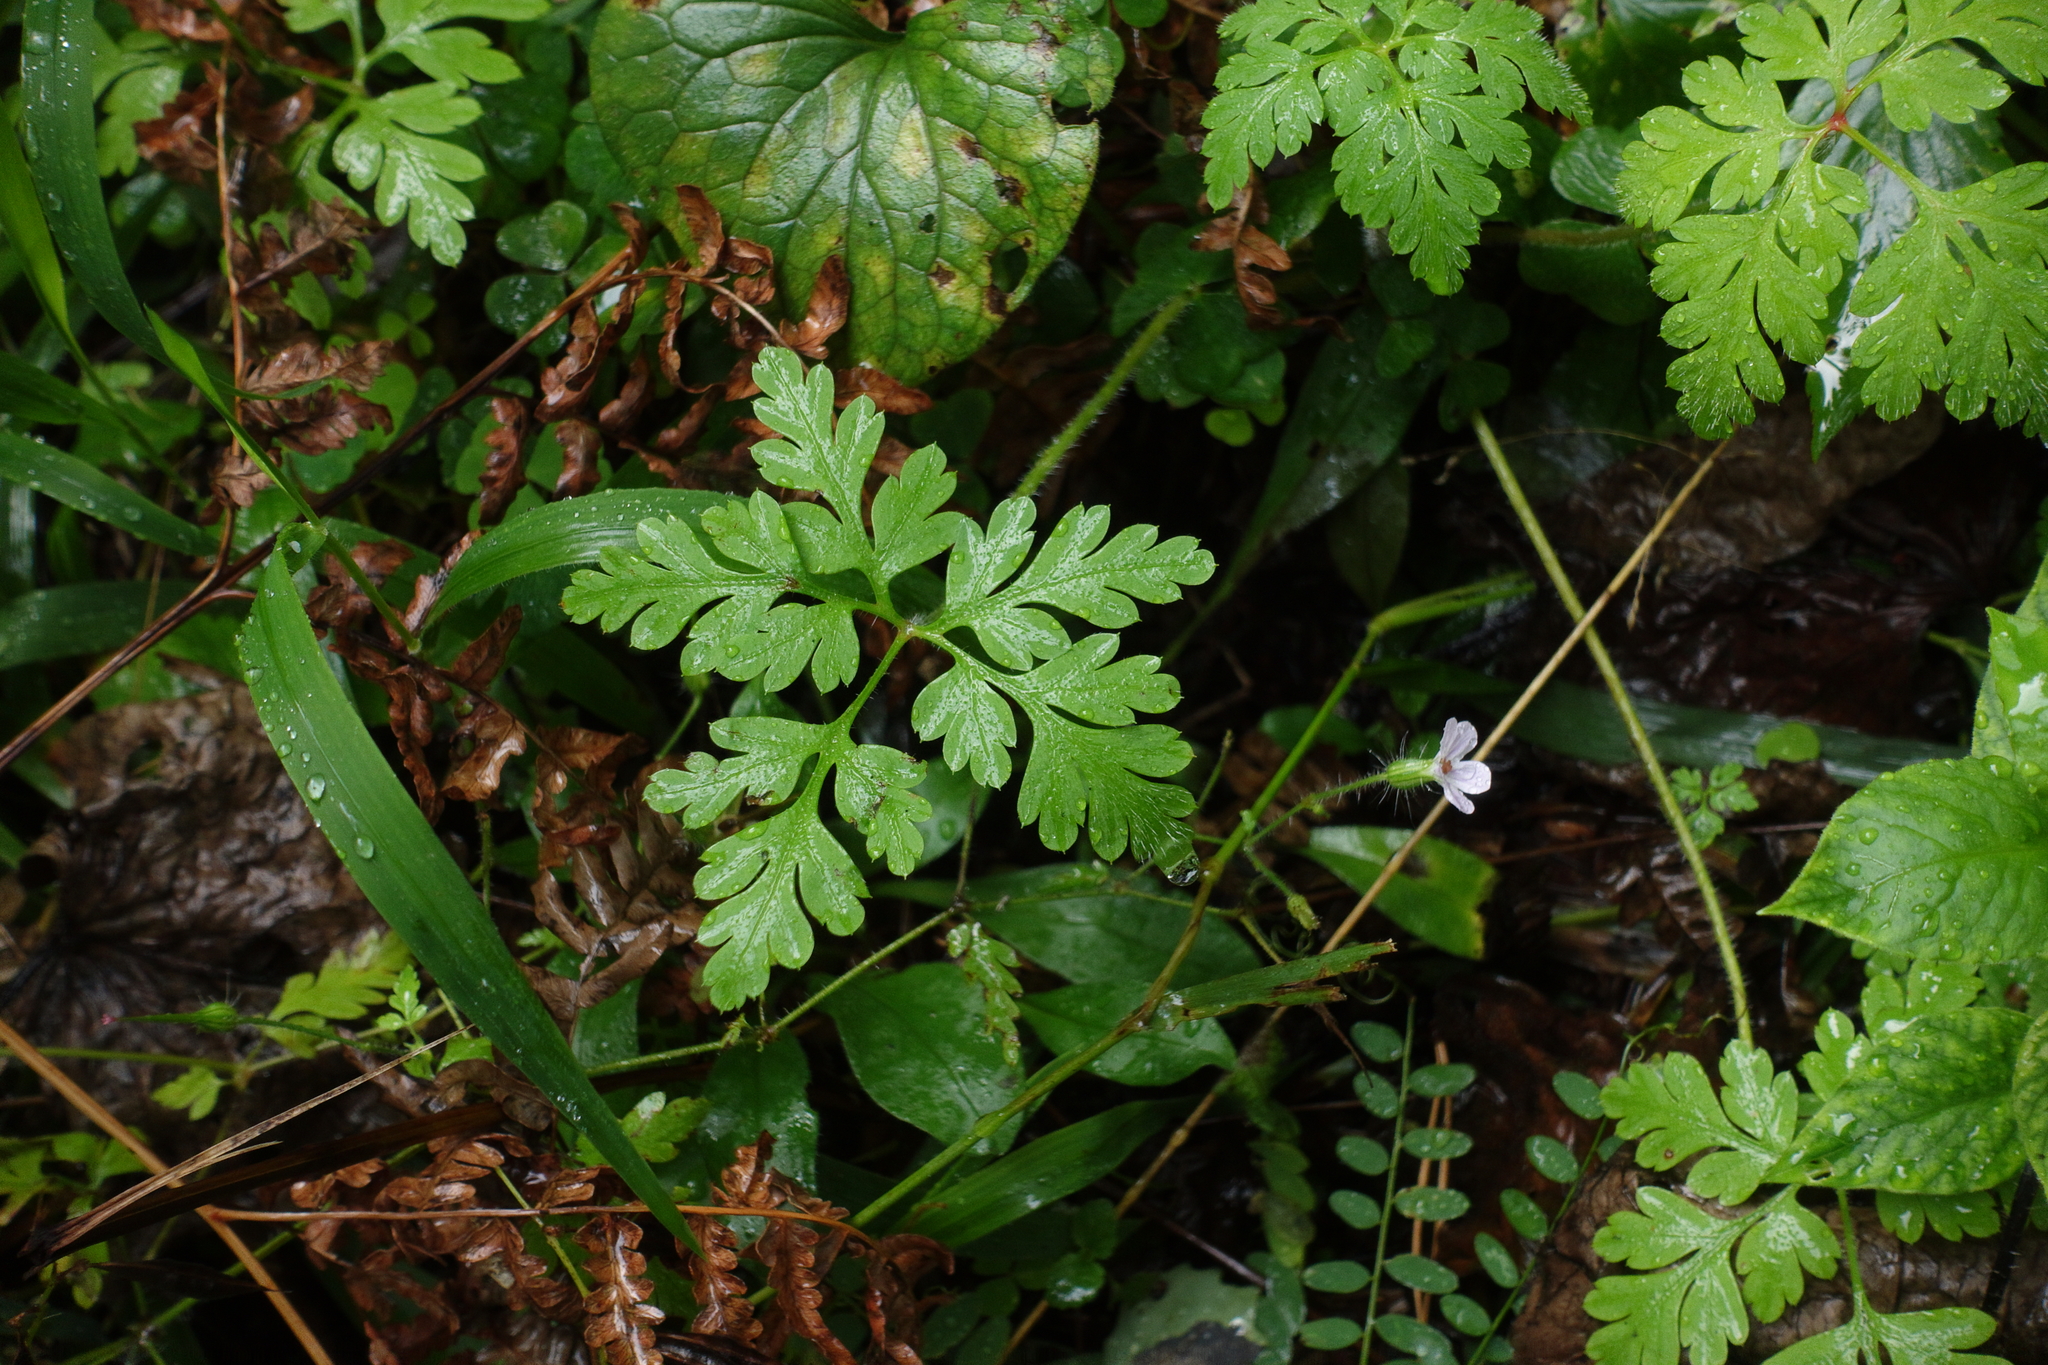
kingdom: Plantae
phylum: Tracheophyta
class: Magnoliopsida
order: Geraniales
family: Geraniaceae
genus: Geranium
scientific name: Geranium robertianum
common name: Herb-robert
